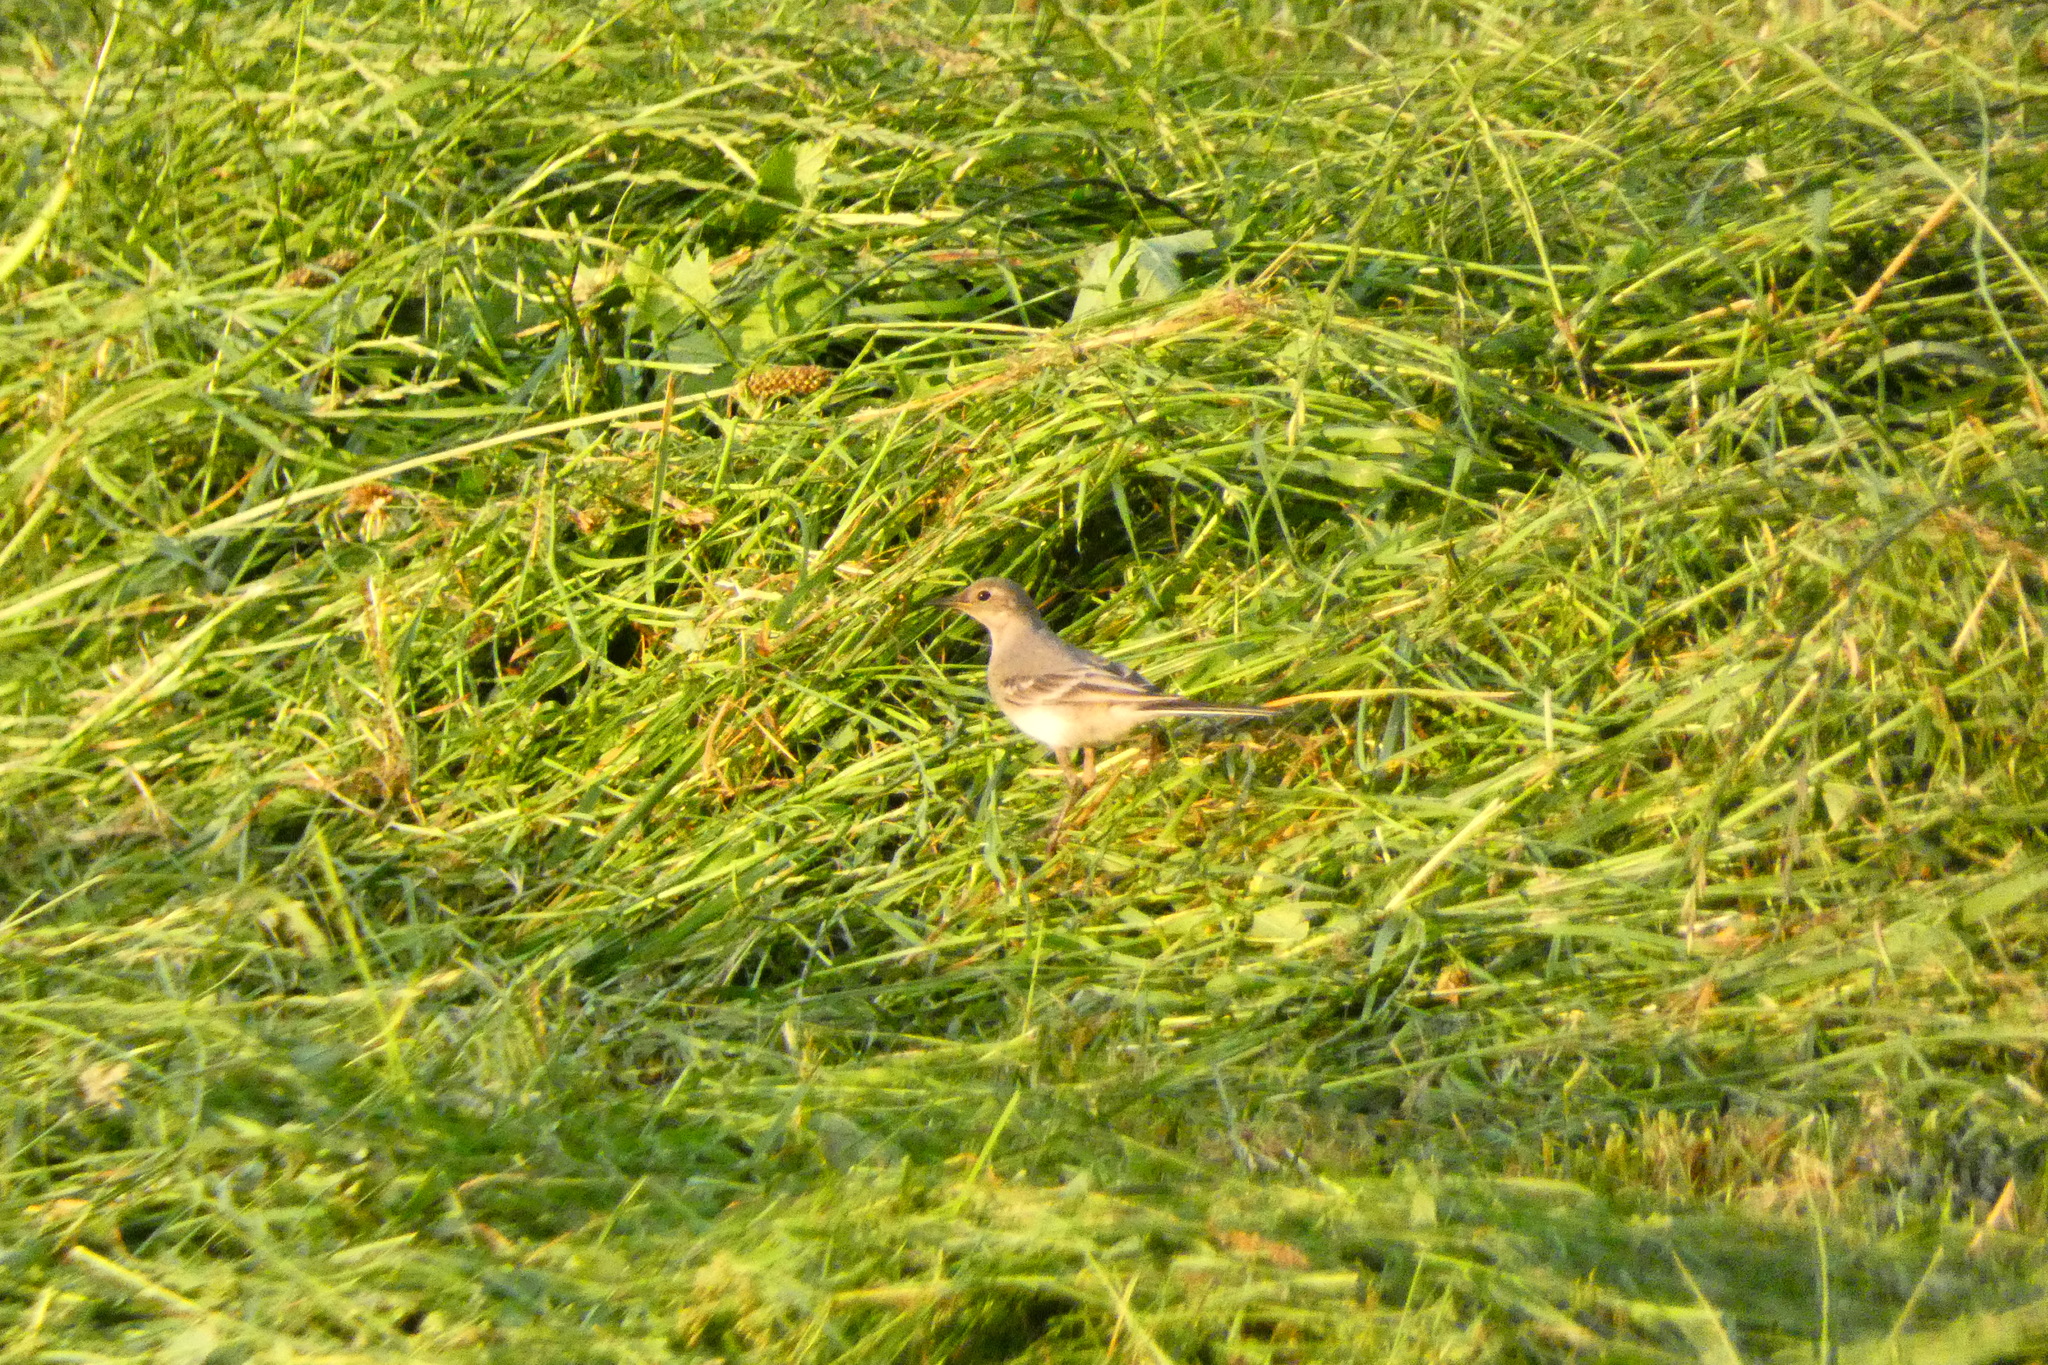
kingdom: Animalia
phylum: Chordata
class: Aves
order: Passeriformes
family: Motacillidae
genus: Motacilla
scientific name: Motacilla alba
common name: White wagtail
